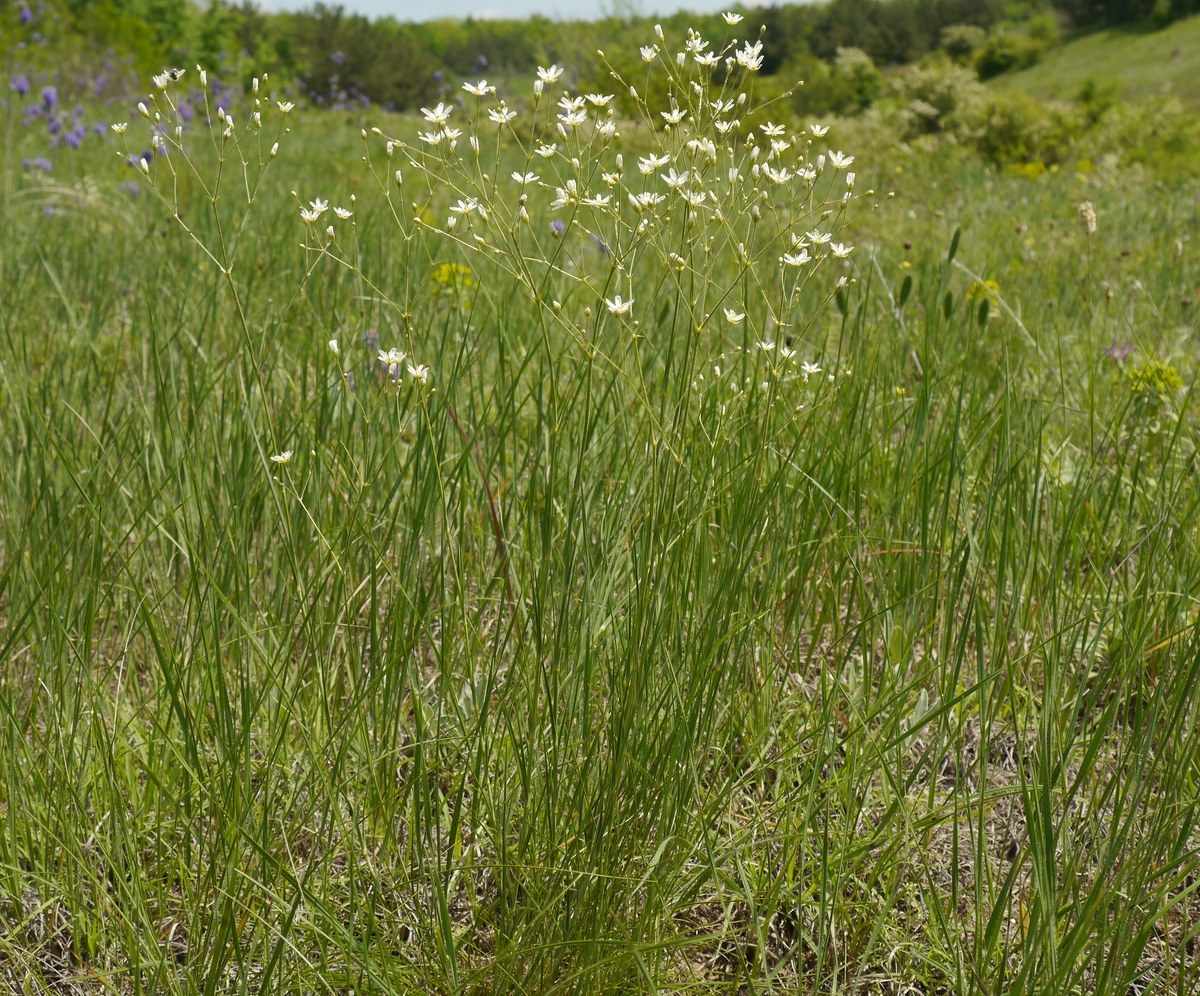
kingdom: Plantae
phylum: Tracheophyta
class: Magnoliopsida
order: Caryophyllales
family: Caryophyllaceae
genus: Eremogone
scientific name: Eremogone biebersteinii
